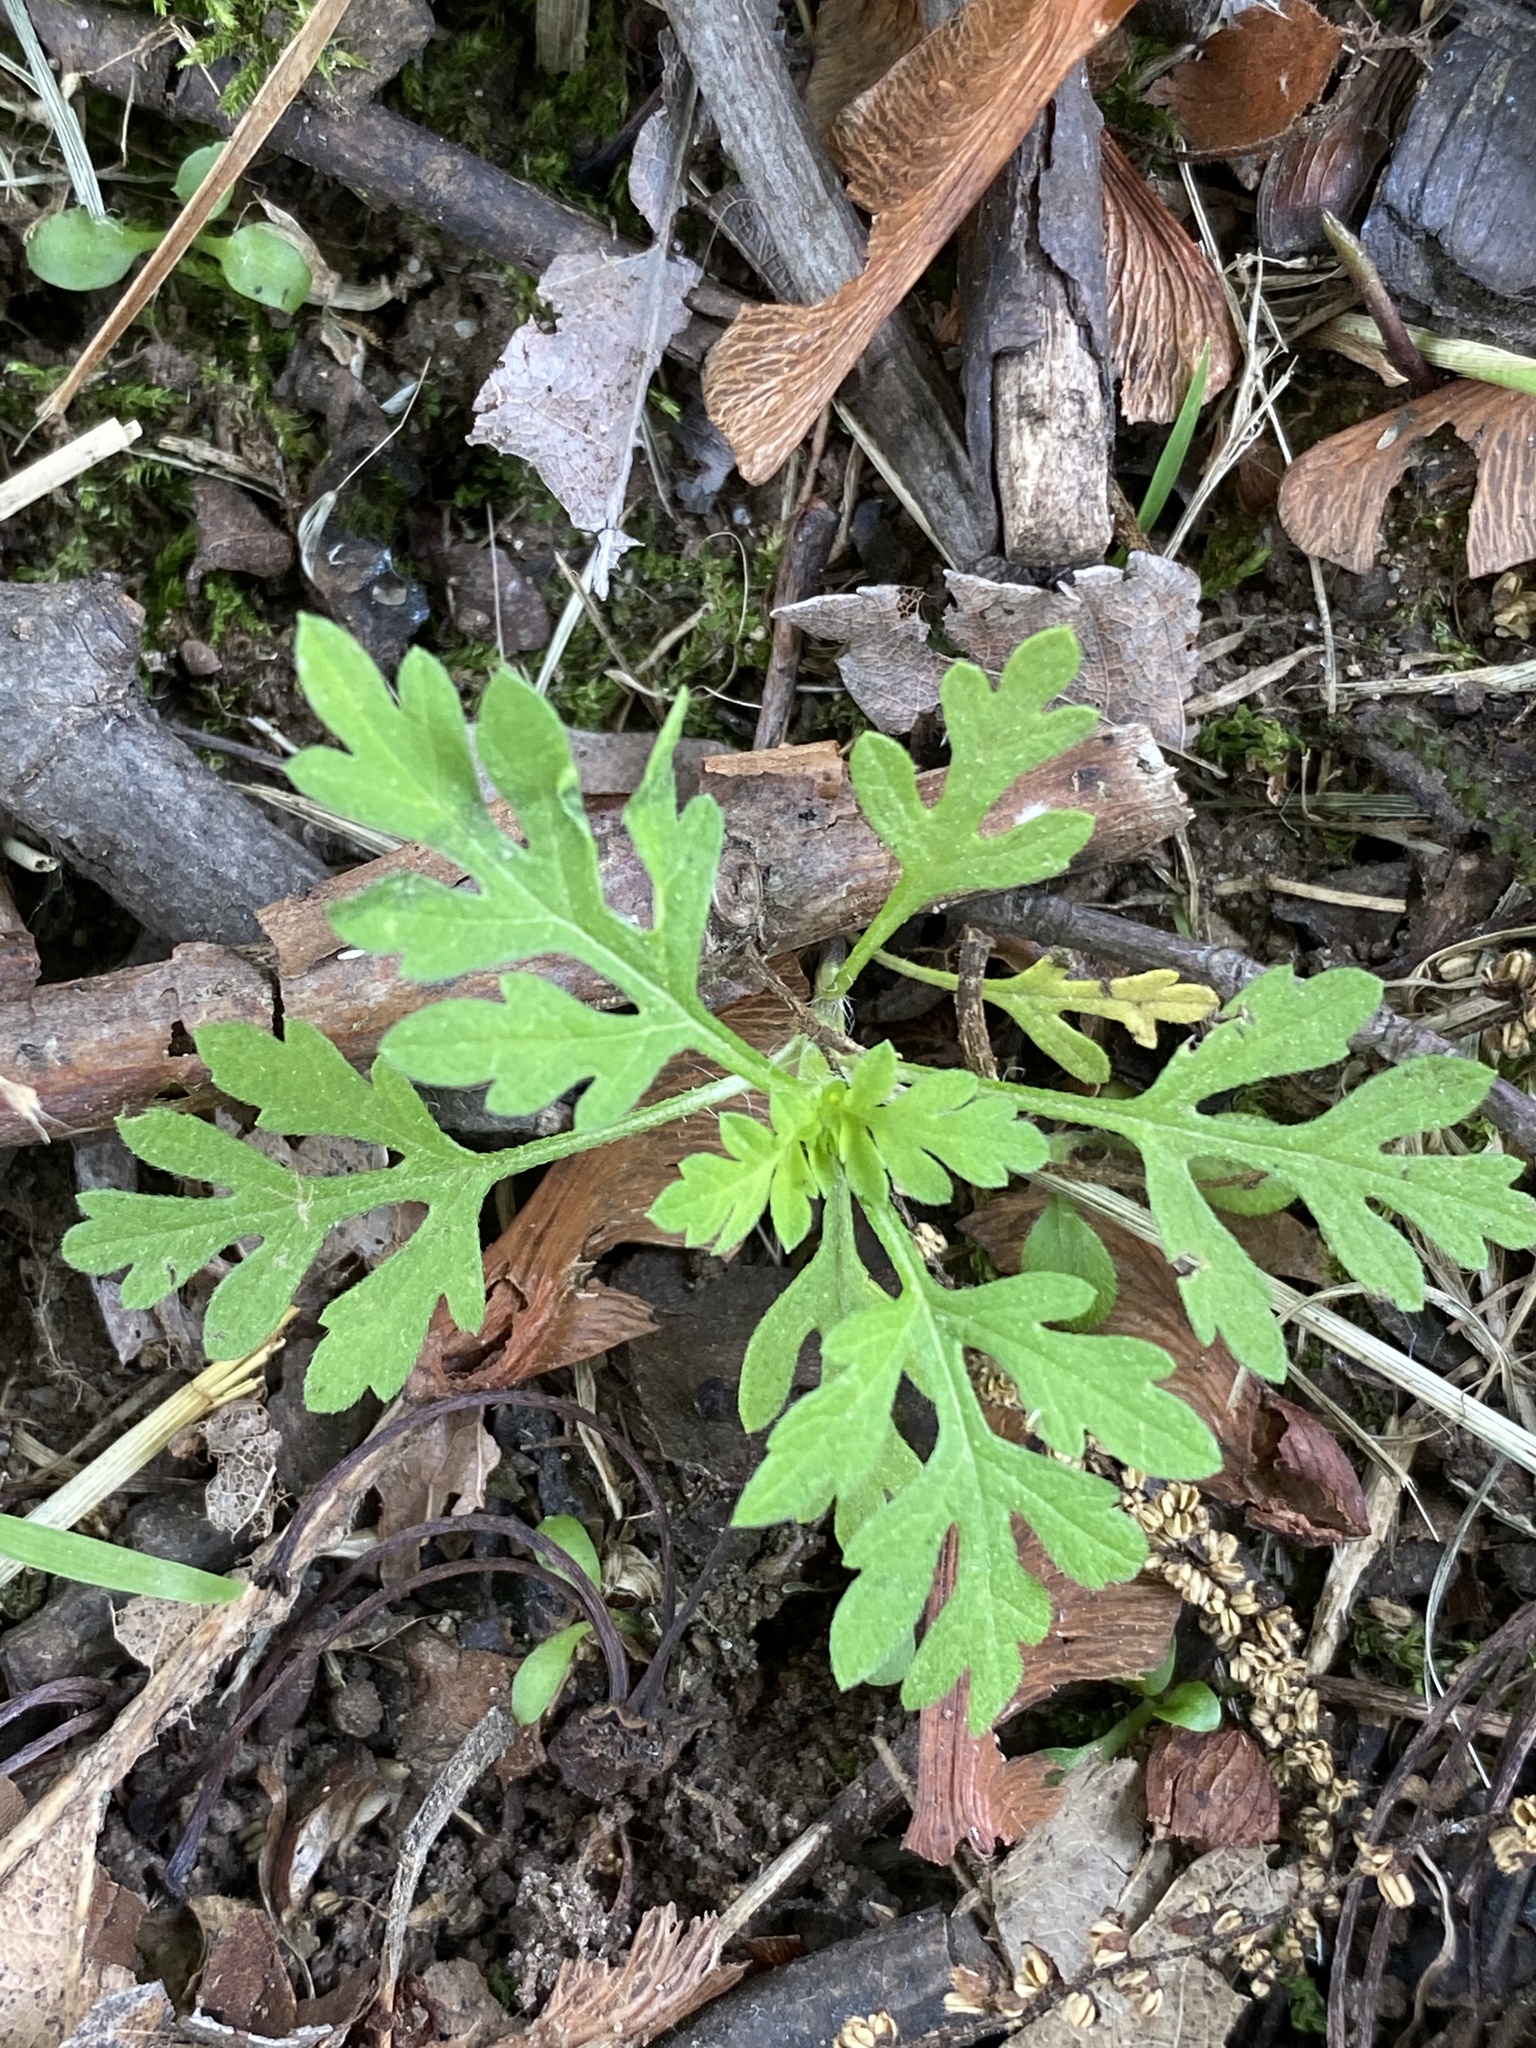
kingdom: Plantae
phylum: Tracheophyta
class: Magnoliopsida
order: Asterales
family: Asteraceae
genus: Ambrosia
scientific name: Ambrosia artemisiifolia
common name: Annual ragweed
